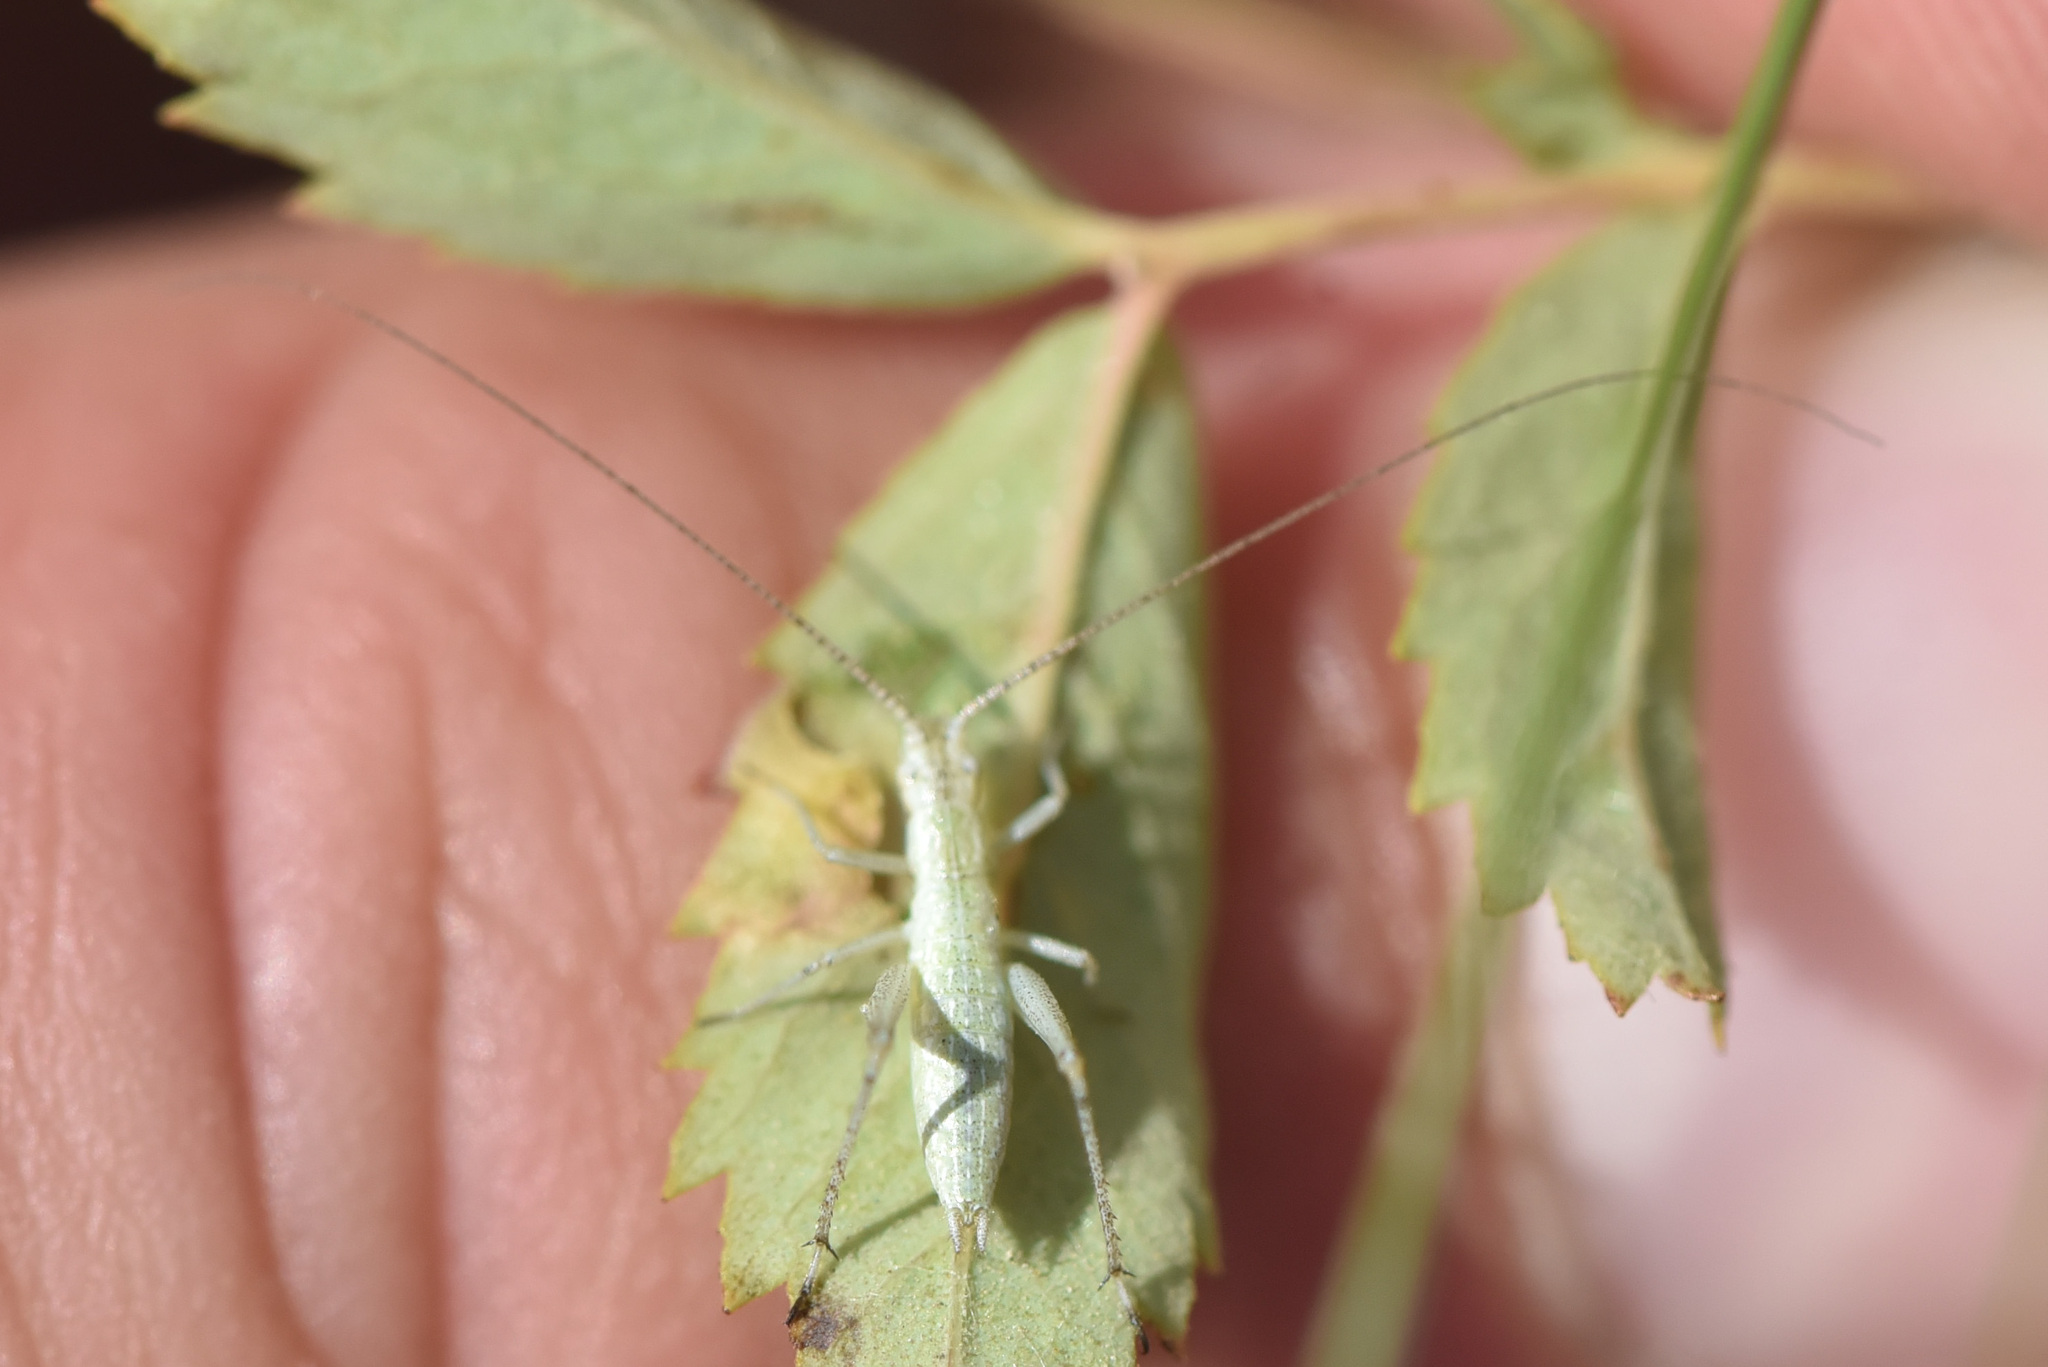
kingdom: Animalia
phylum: Arthropoda
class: Insecta
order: Orthoptera
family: Gryllidae
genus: Oecanthus
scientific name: Oecanthus salvii
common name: Sage tree cricket
